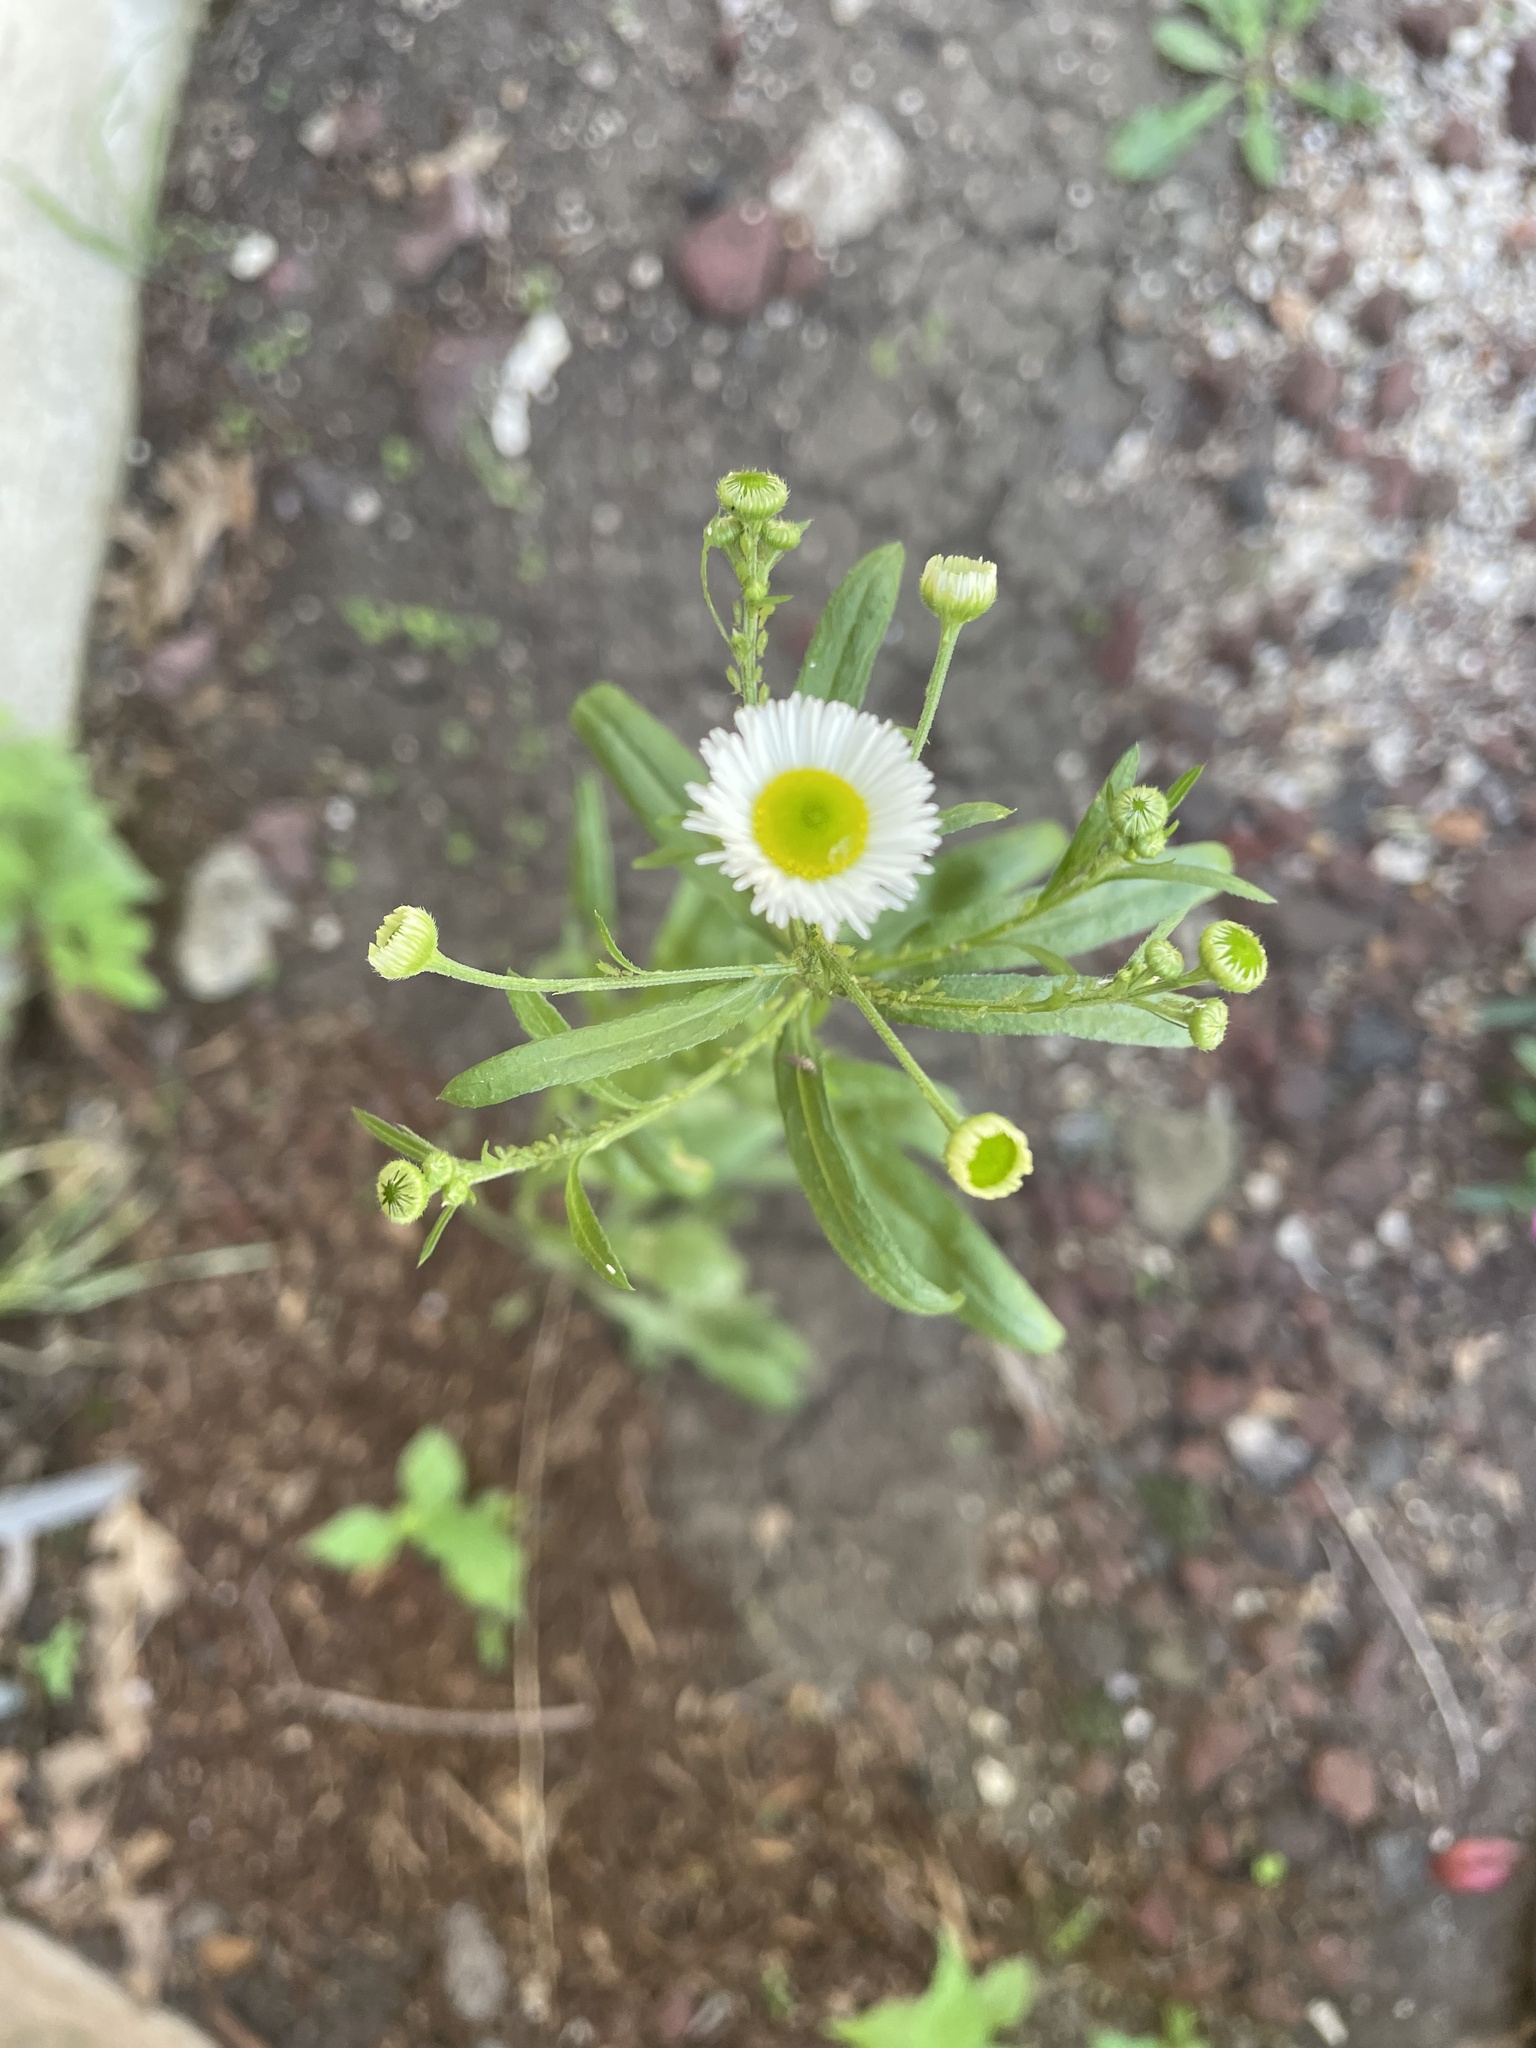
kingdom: Plantae
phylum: Tracheophyta
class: Magnoliopsida
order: Asterales
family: Asteraceae
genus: Erigeron
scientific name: Erigeron strigosus
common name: Common eastern fleabane
